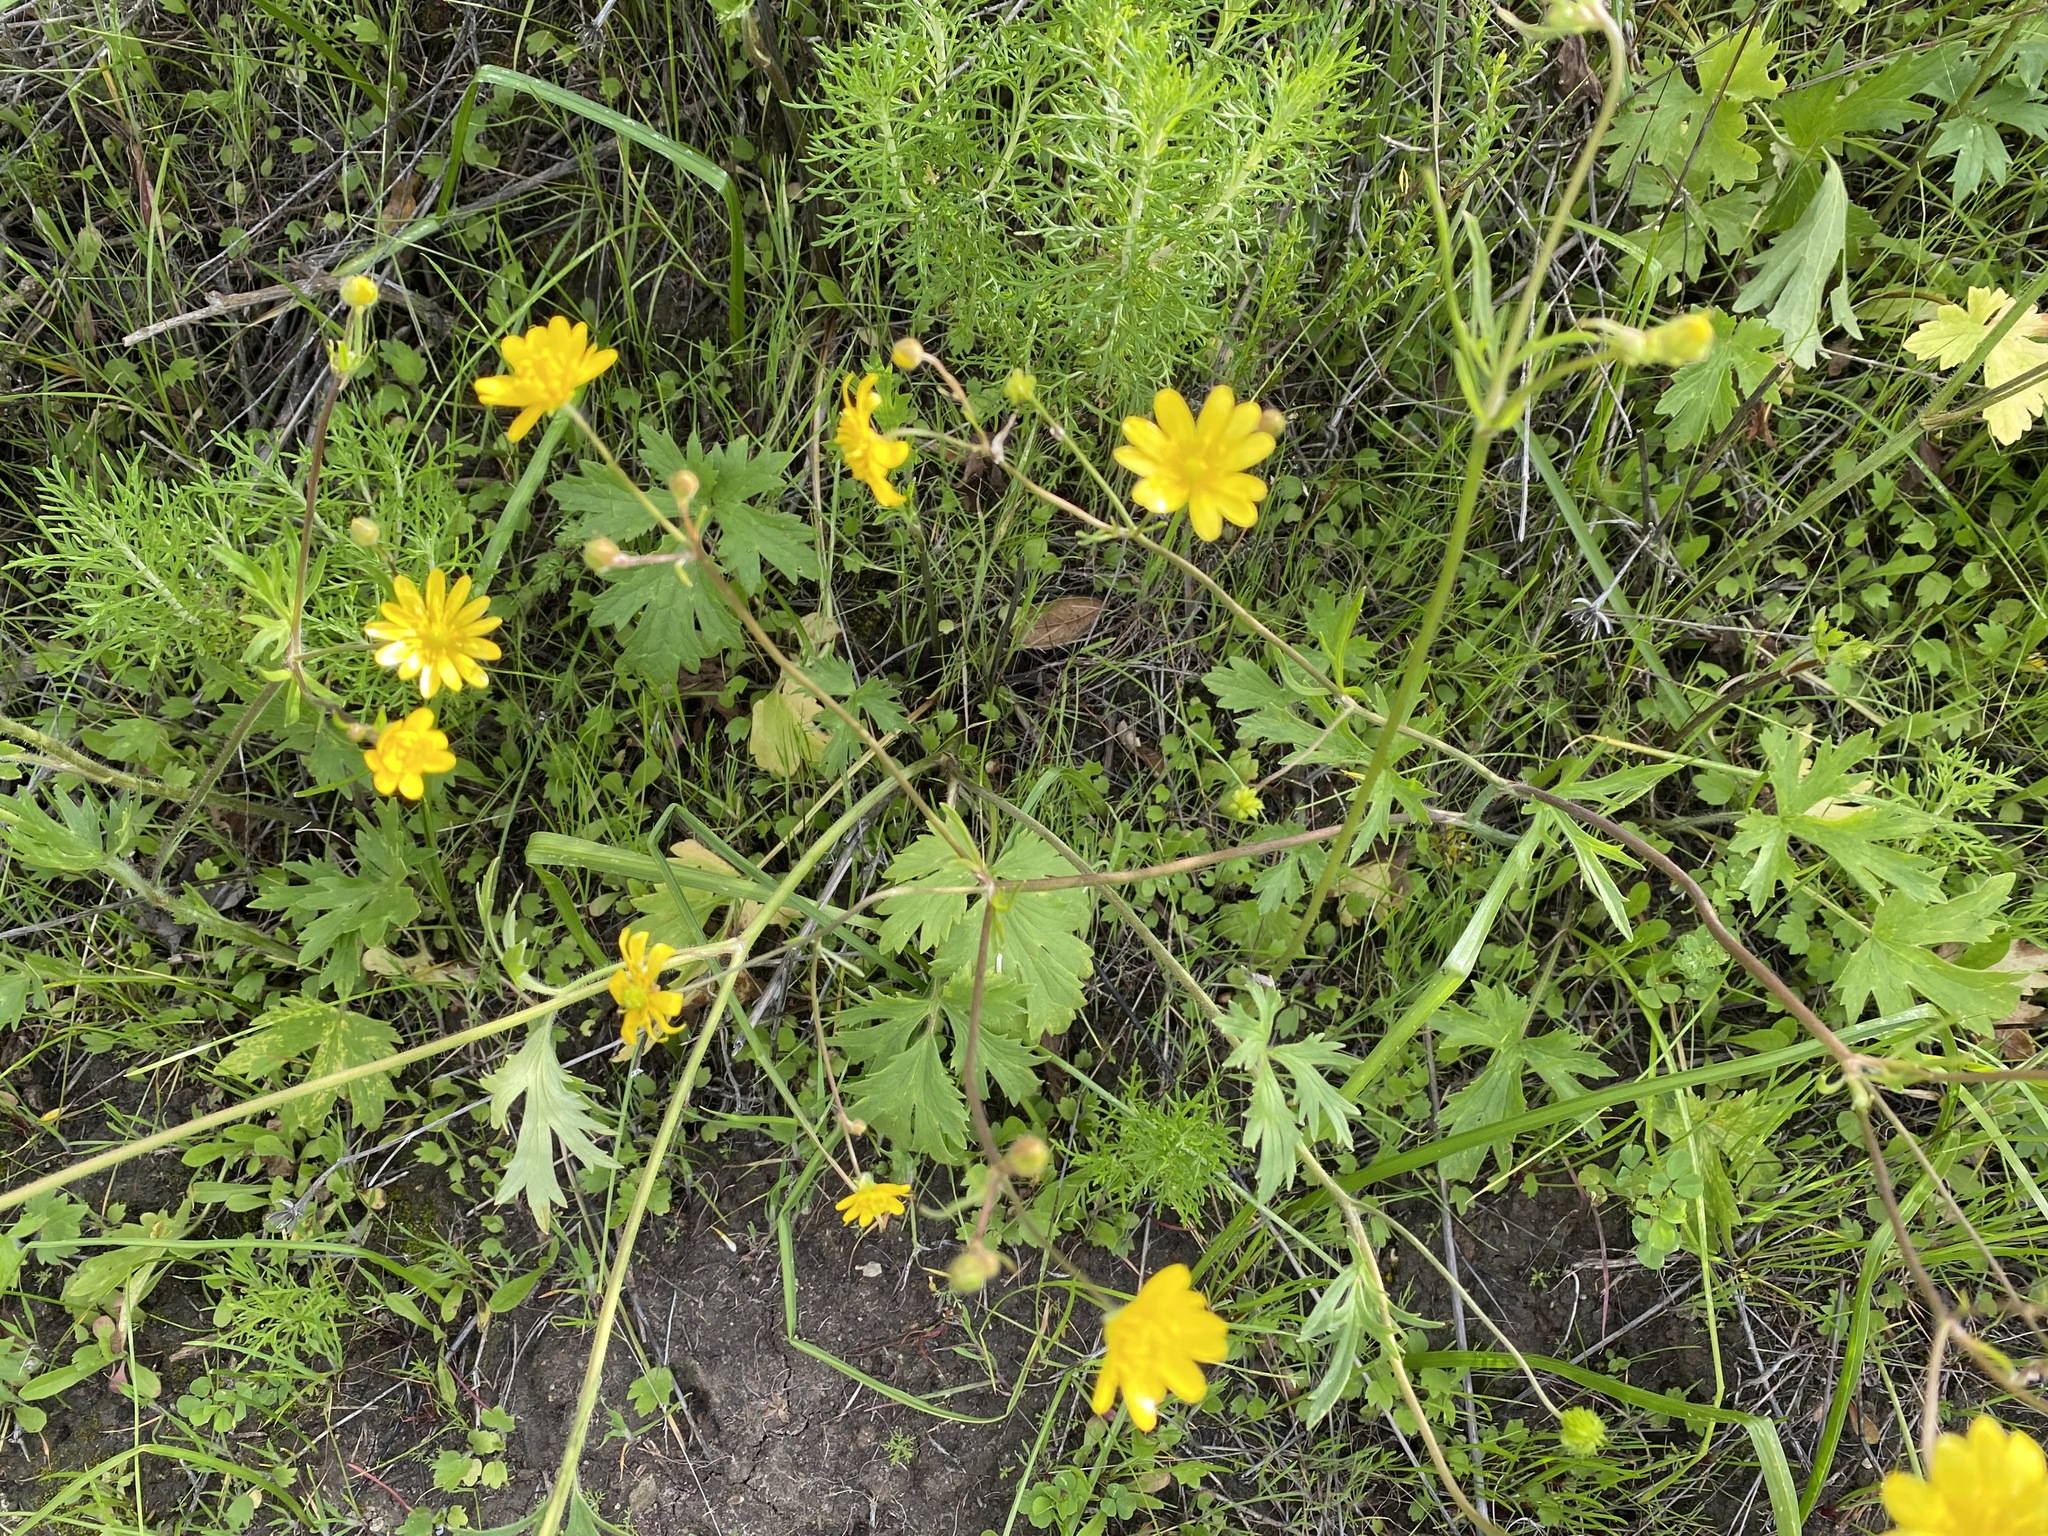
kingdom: Plantae
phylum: Tracheophyta
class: Magnoliopsida
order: Ranunculales
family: Ranunculaceae
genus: Ranunculus
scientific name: Ranunculus californicus
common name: California buttercup
